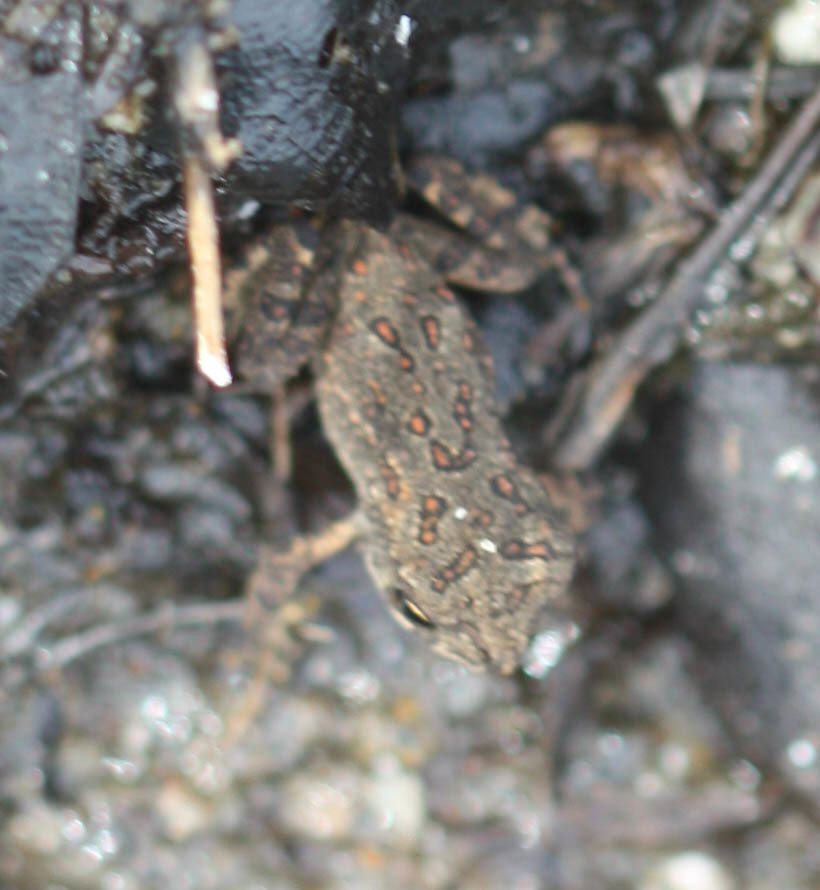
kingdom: Animalia
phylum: Chordata
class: Amphibia
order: Anura
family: Bufonidae
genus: Anaxyrus
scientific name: Anaxyrus americanus
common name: American toad
